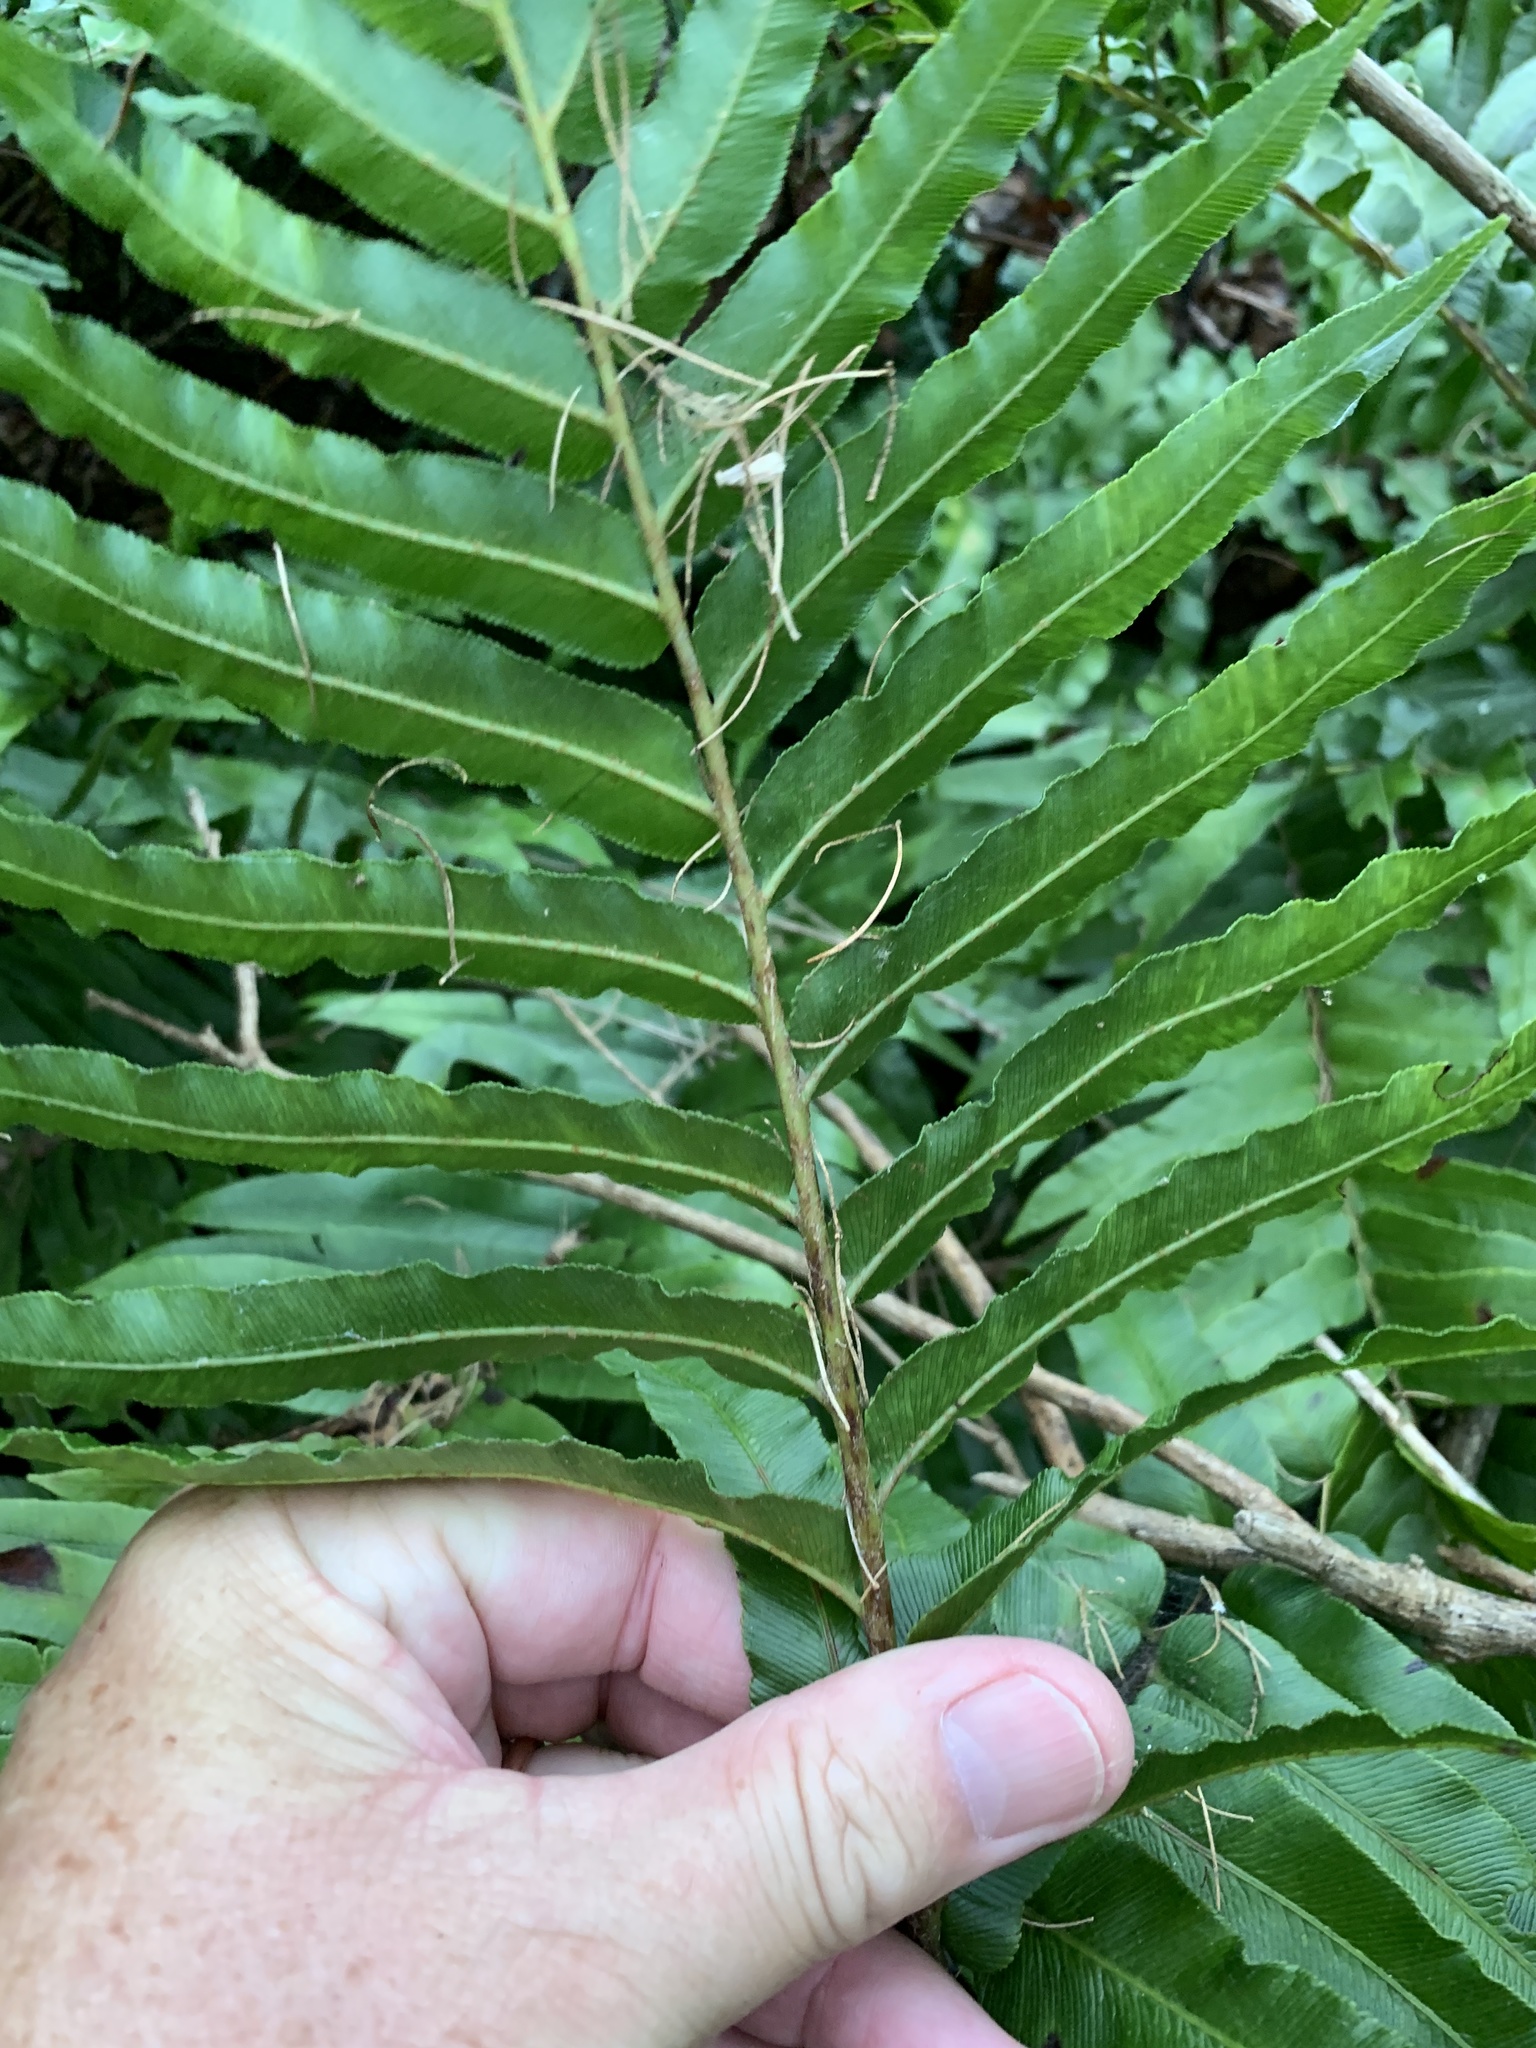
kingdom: Plantae
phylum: Tracheophyta
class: Polypodiopsida
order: Polypodiales
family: Blechnaceae
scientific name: Blechnaceae
